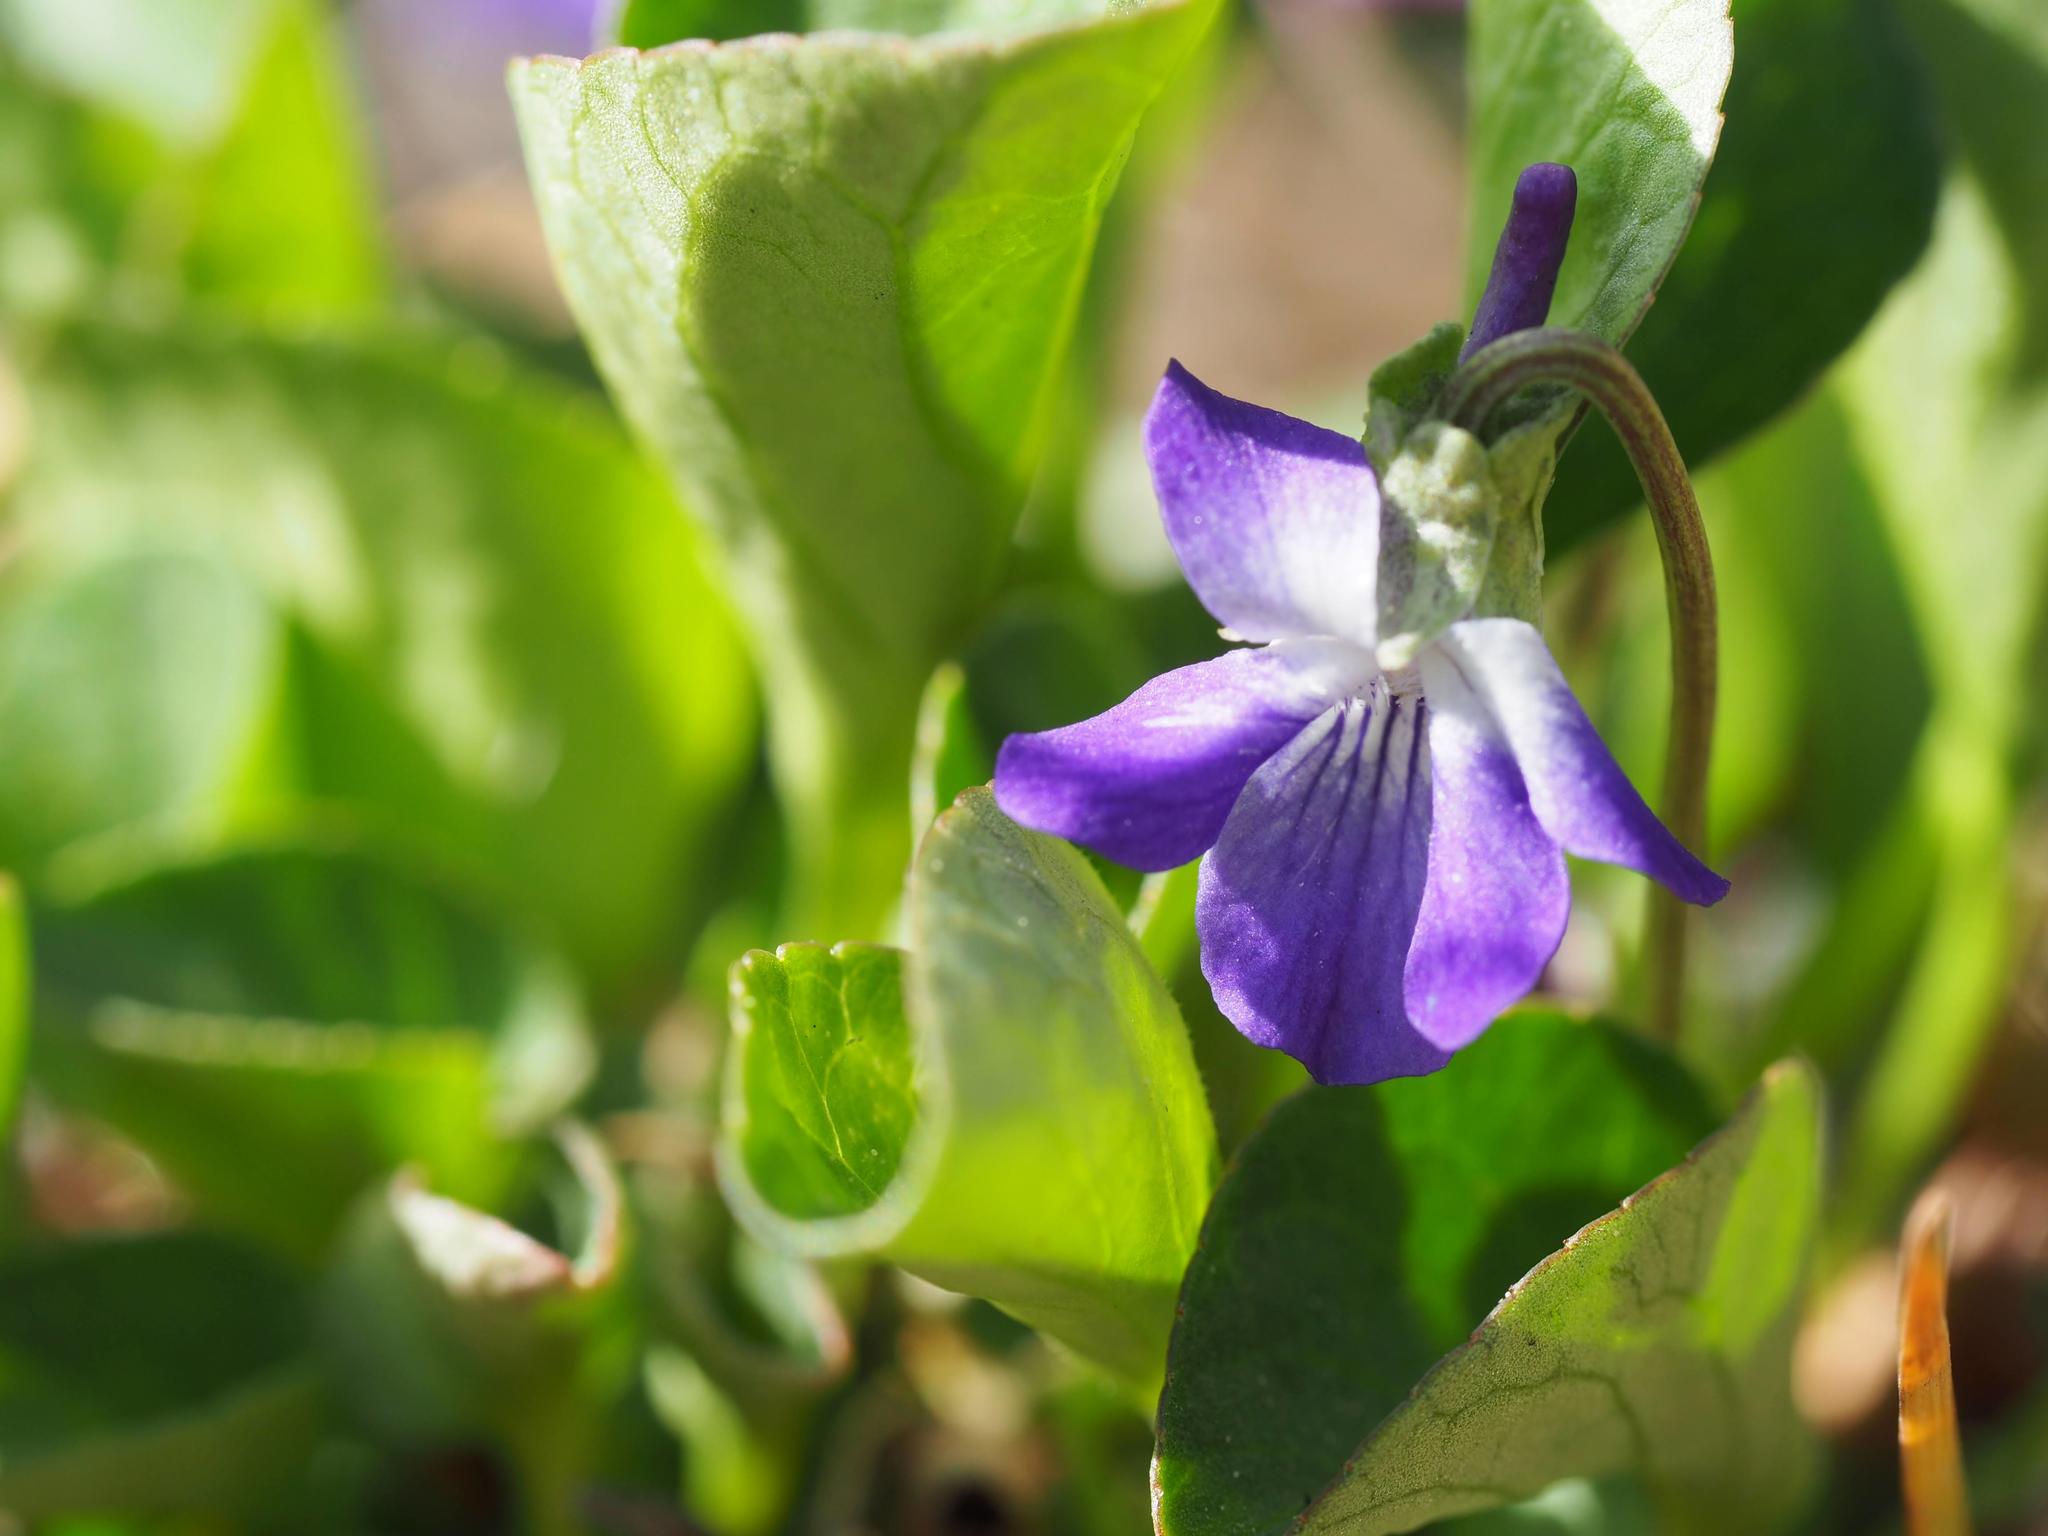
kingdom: Plantae
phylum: Tracheophyta
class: Magnoliopsida
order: Malpighiales
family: Violaceae
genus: Viola
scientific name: Viola adunca
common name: Sand violet
